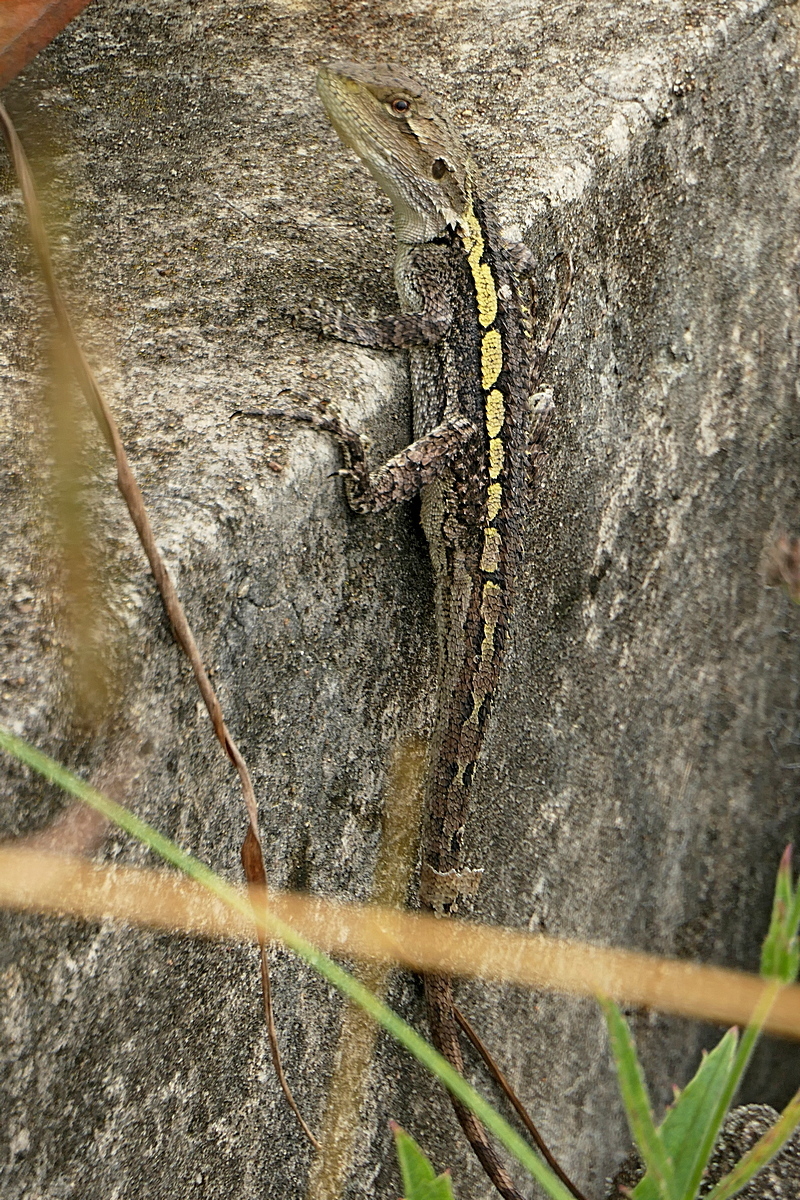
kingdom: Animalia
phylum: Chordata
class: Squamata
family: Agamidae
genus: Amphibolurus
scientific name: Amphibolurus muricatus
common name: Jacky lizard
